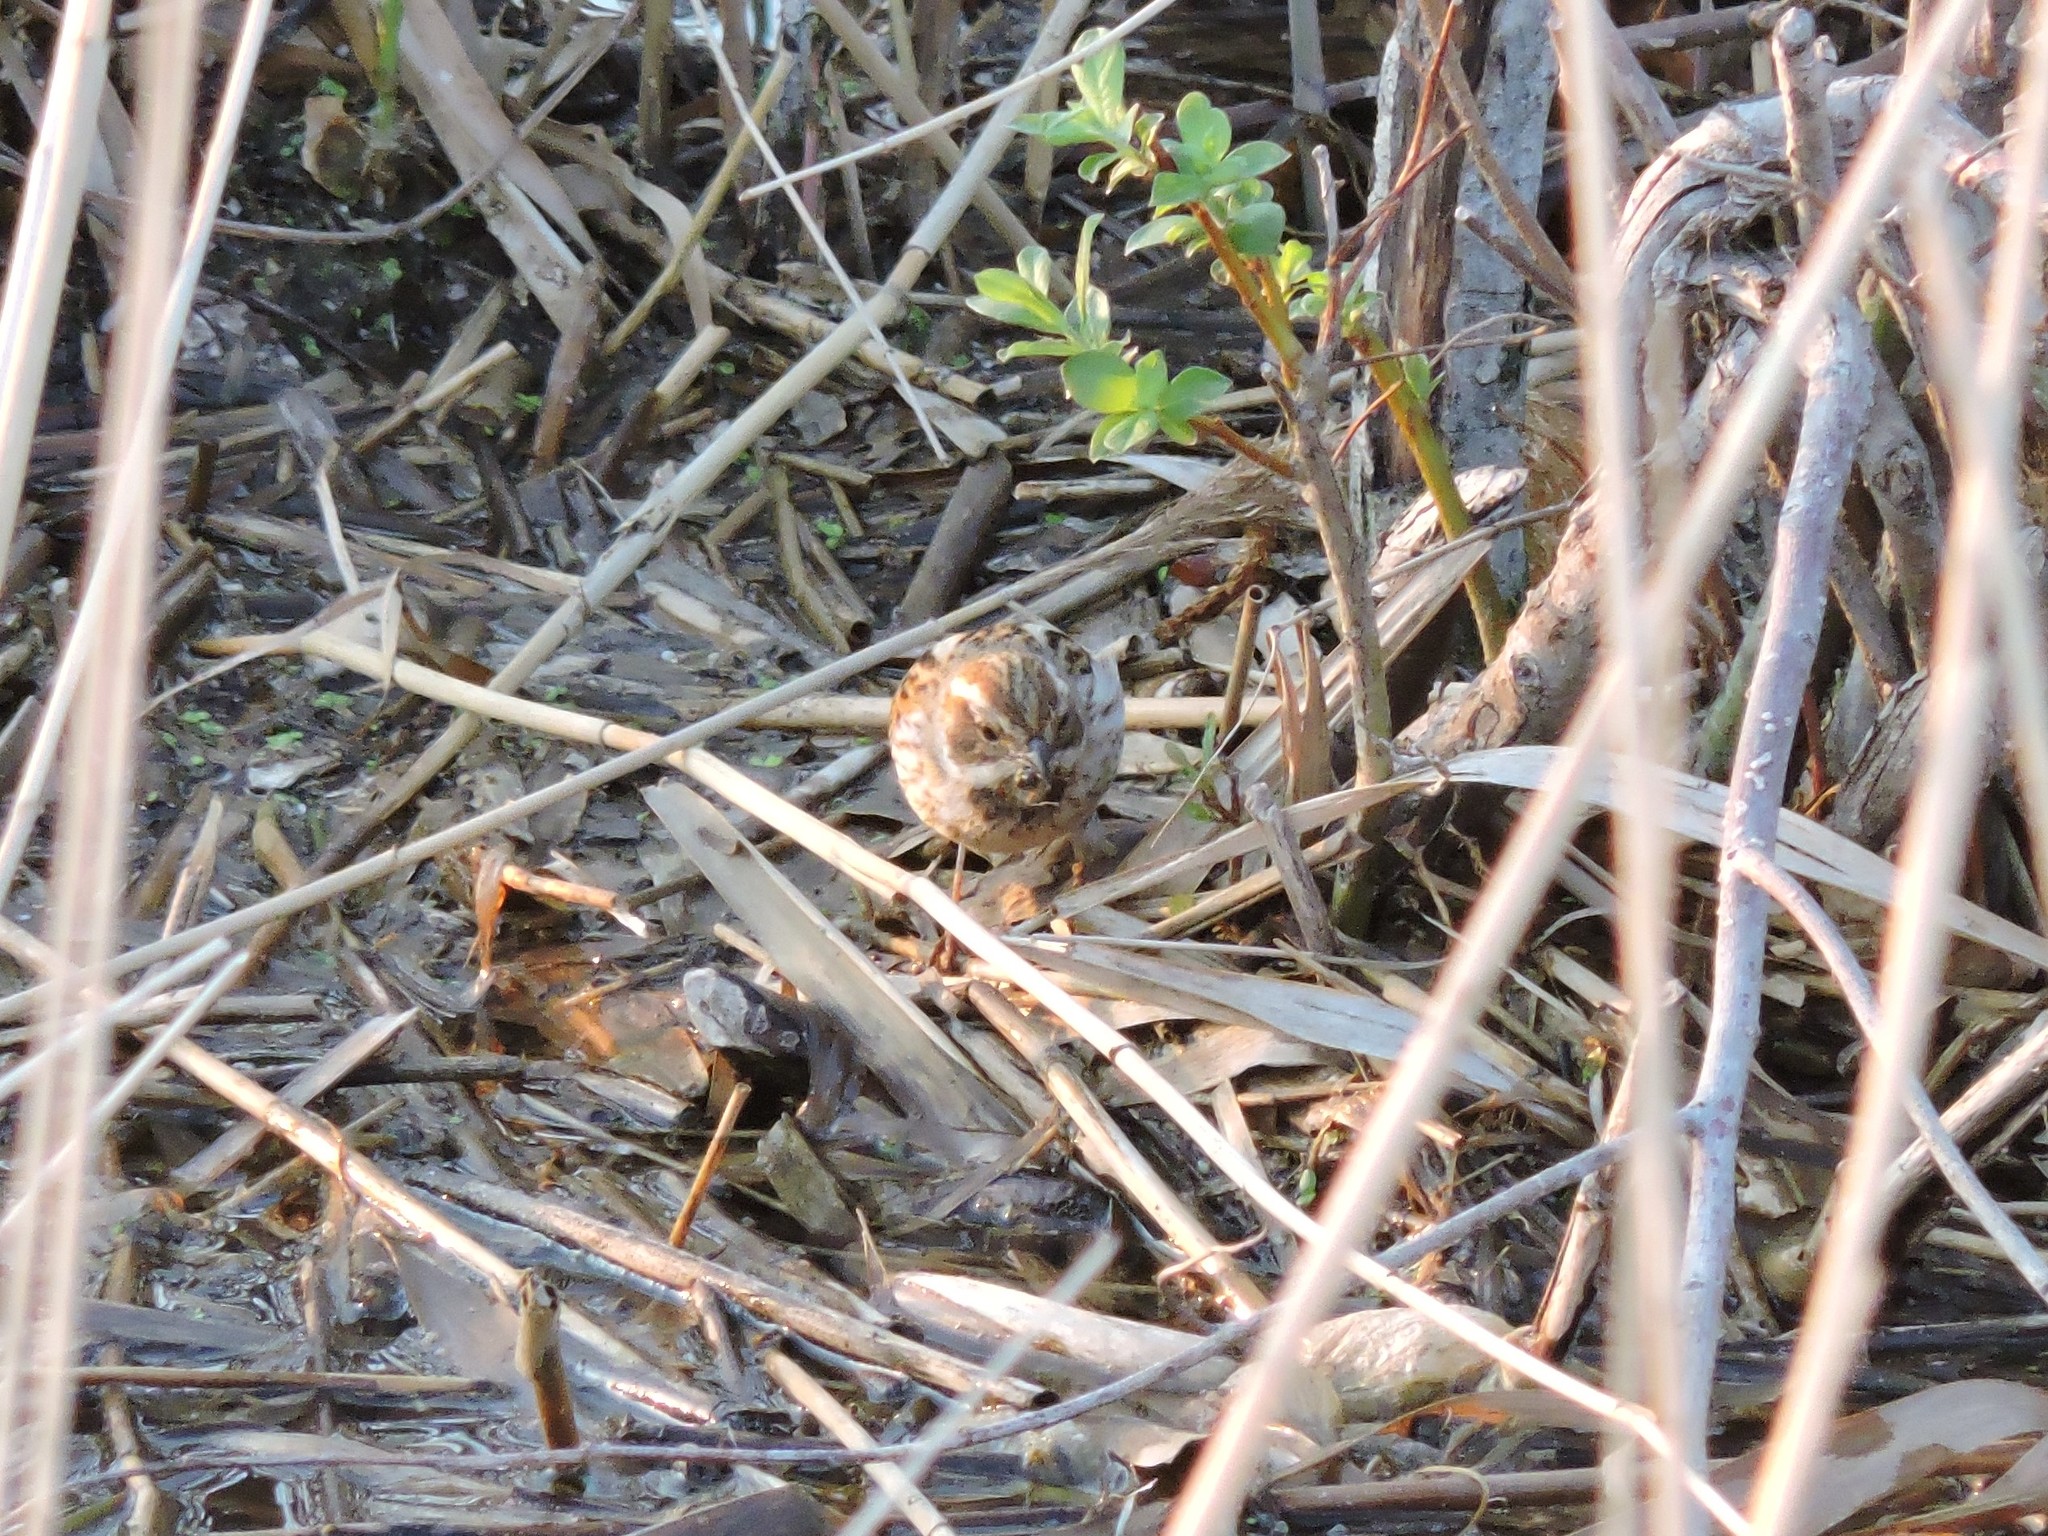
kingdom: Animalia
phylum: Chordata
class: Aves
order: Passeriformes
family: Emberizidae
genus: Emberiza
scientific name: Emberiza schoeniclus
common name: Reed bunting
